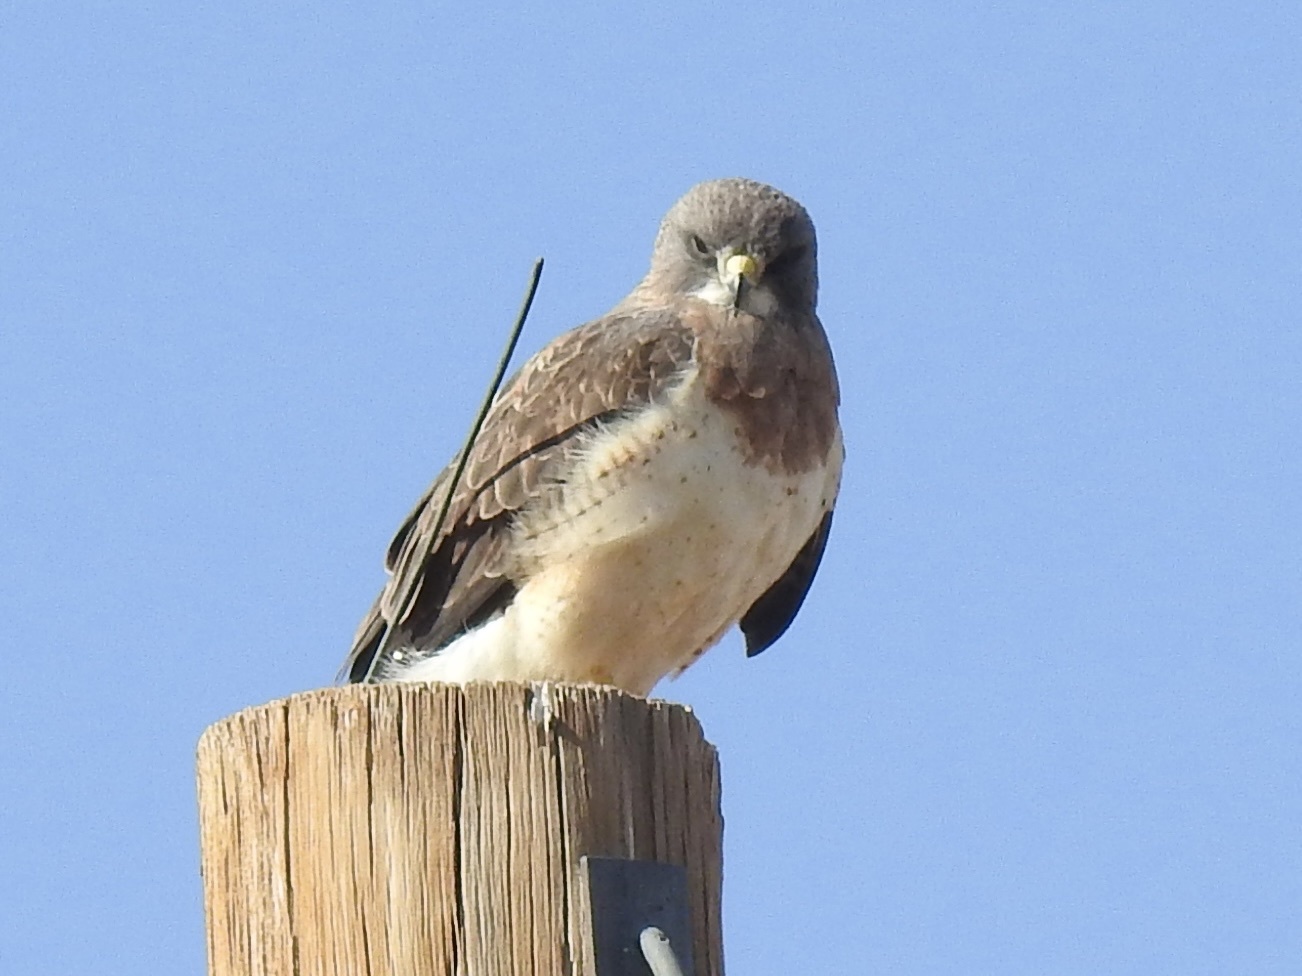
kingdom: Animalia
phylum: Chordata
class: Aves
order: Accipitriformes
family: Accipitridae
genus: Buteo
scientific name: Buteo swainsoni
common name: Swainson's hawk
